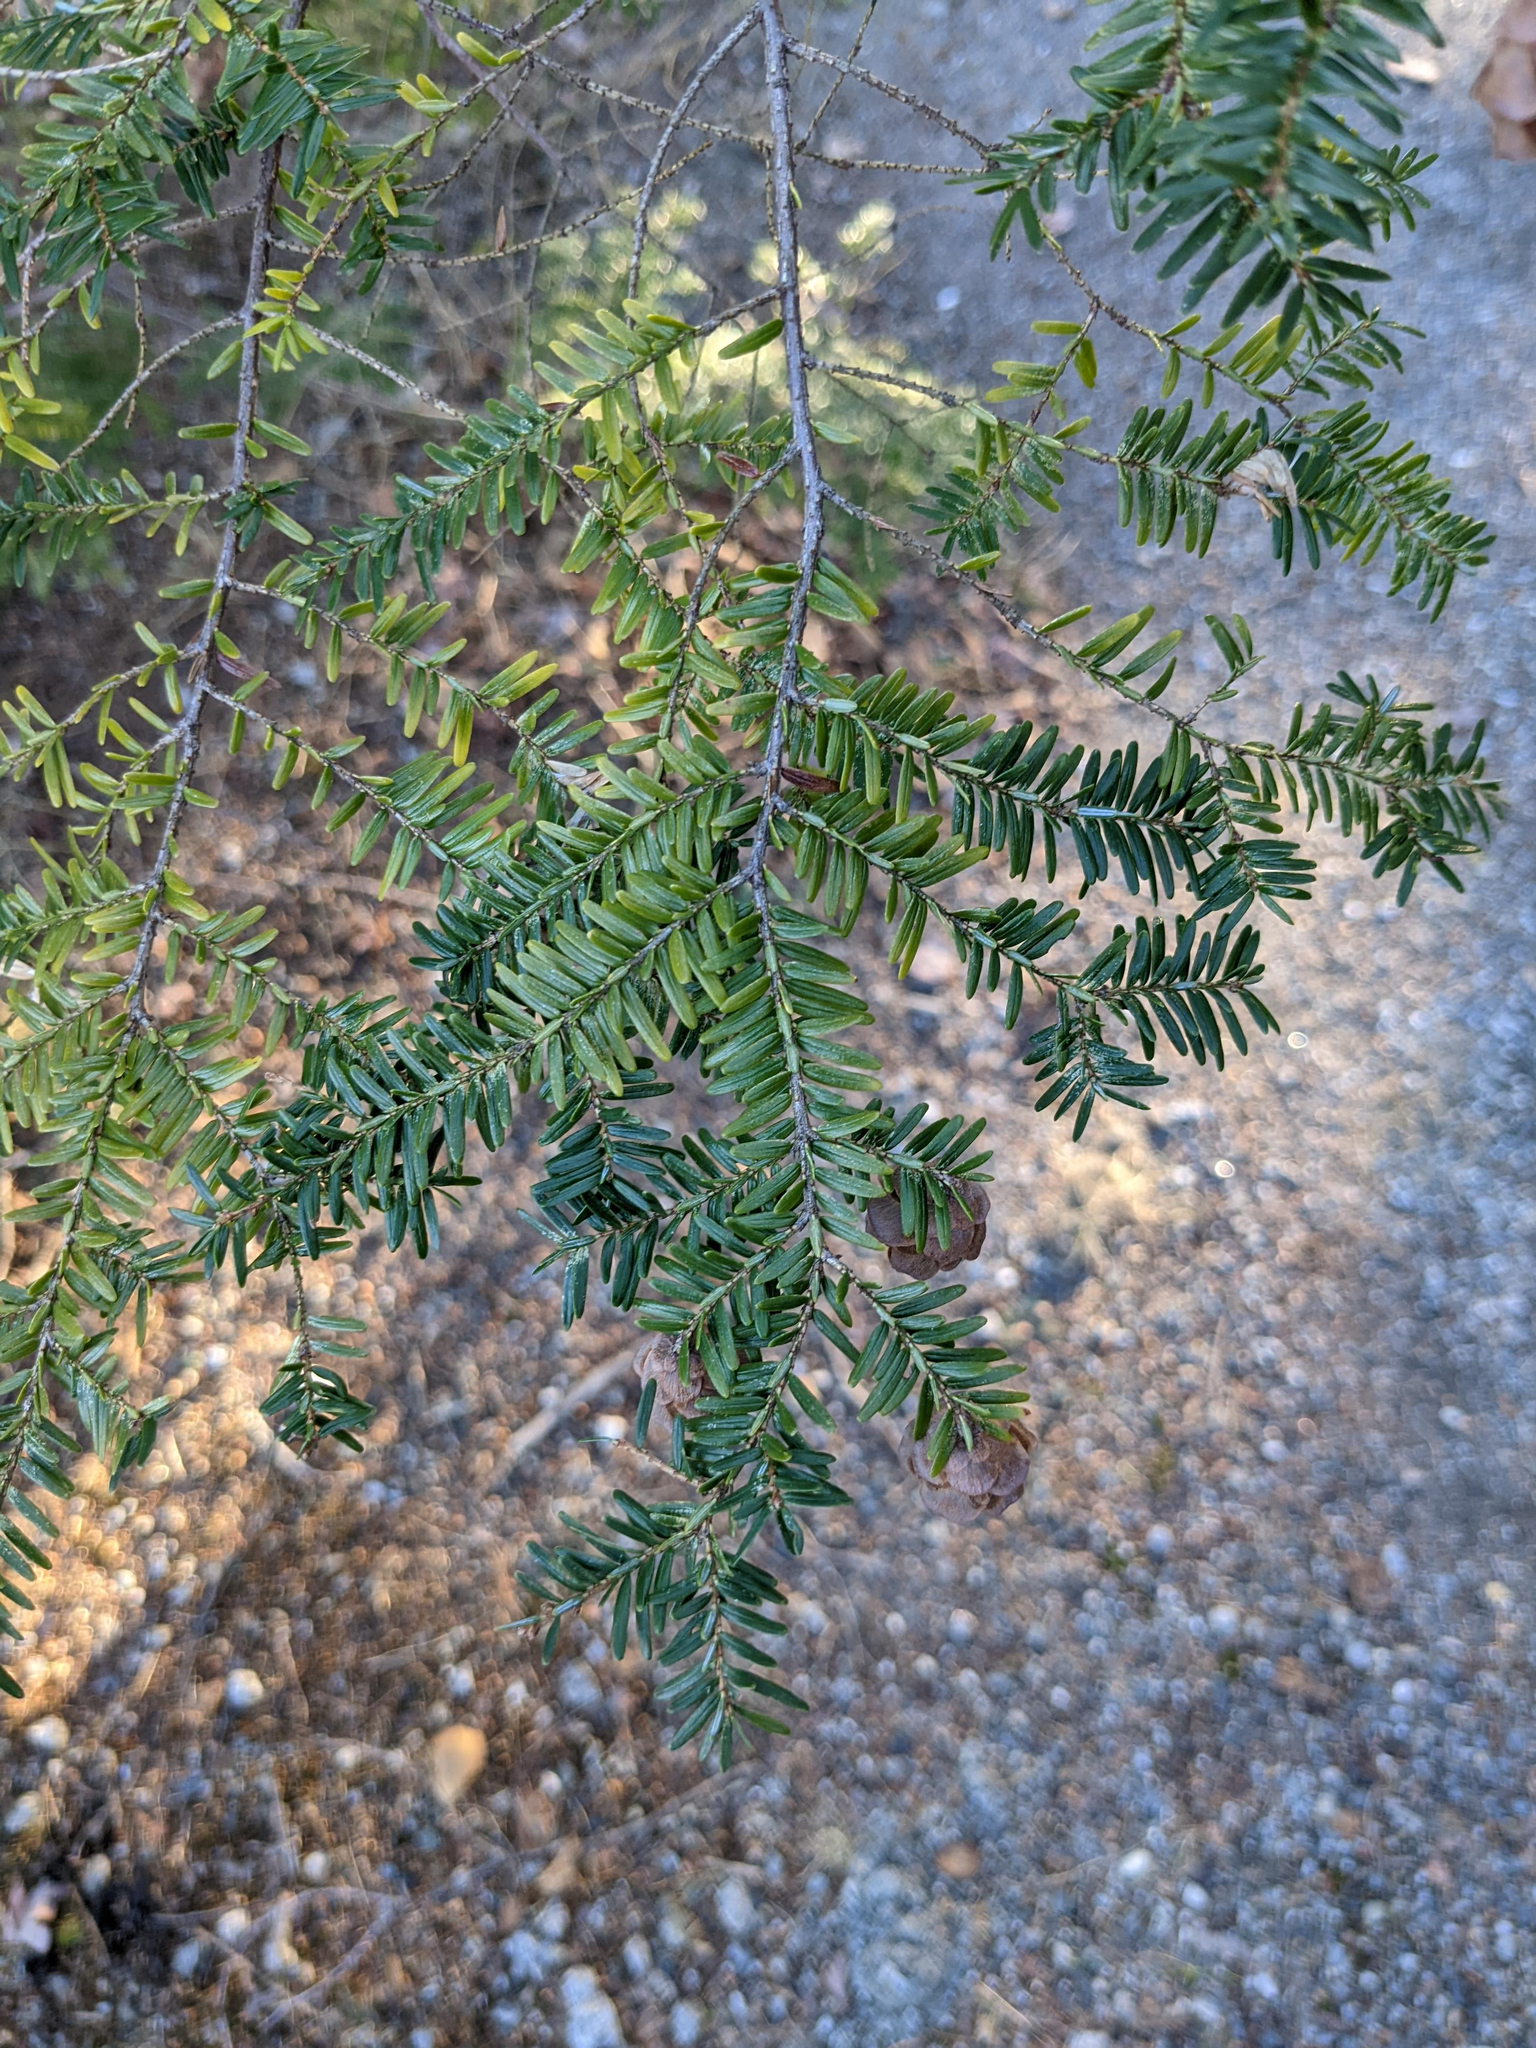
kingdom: Plantae
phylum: Tracheophyta
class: Pinopsida
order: Pinales
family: Pinaceae
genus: Tsuga
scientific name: Tsuga canadensis
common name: Eastern hemlock
